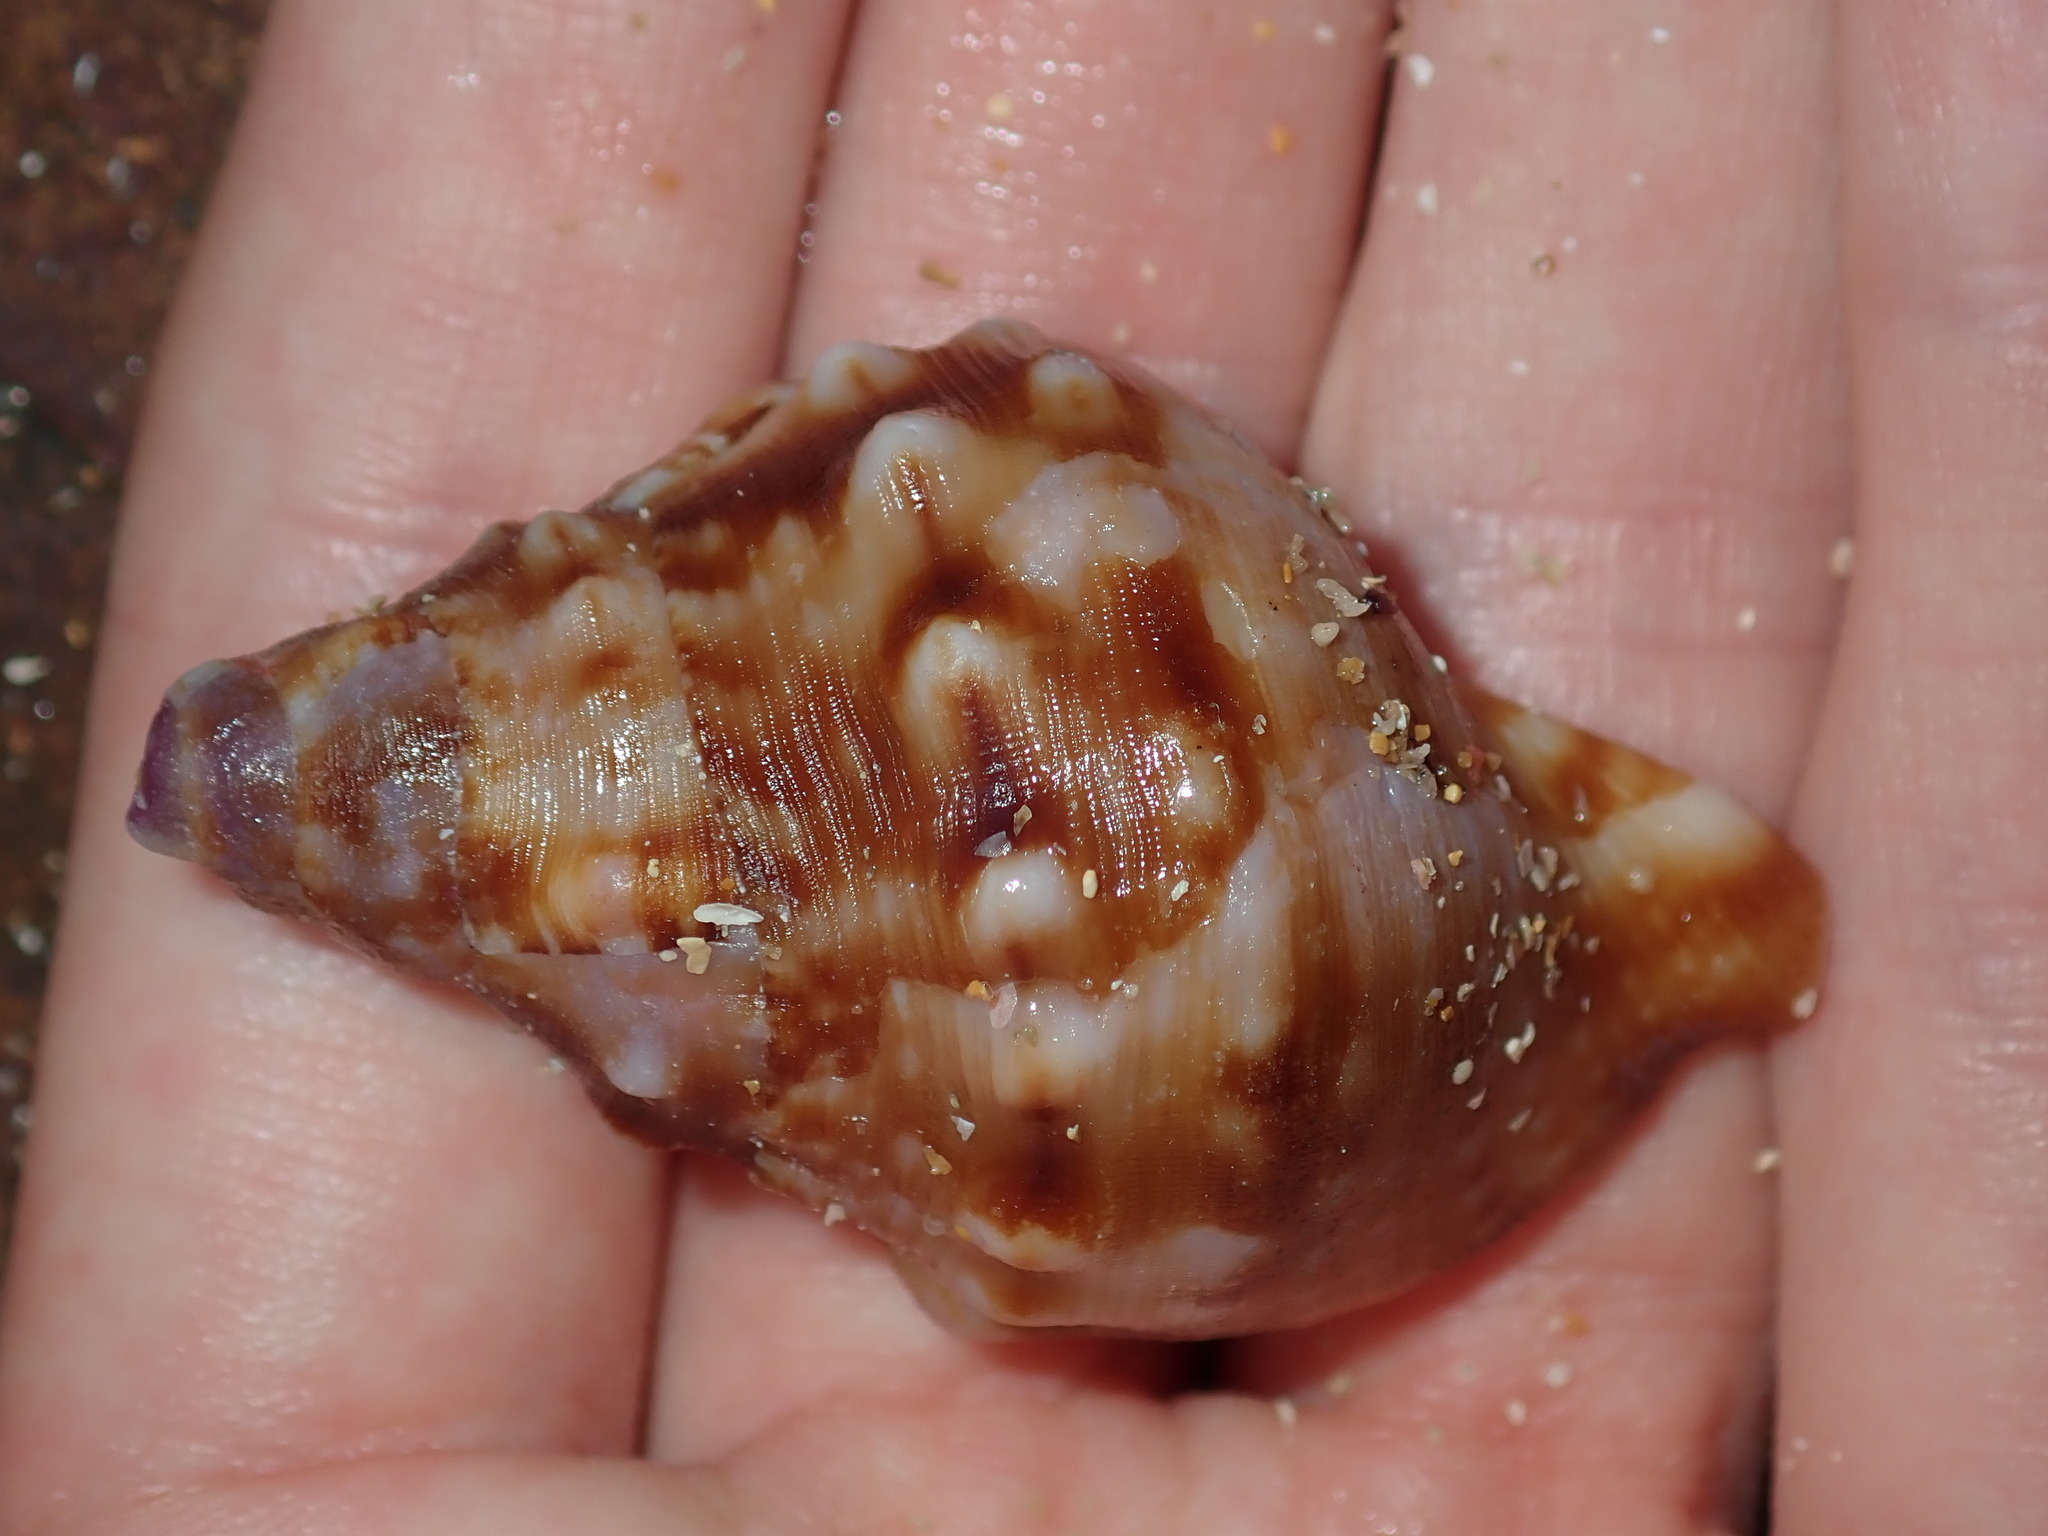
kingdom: Animalia
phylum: Mollusca
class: Gastropoda
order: Littorinimorpha
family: Charoniidae
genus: Charonia
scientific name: Charonia lampas
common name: Knobbed triton
